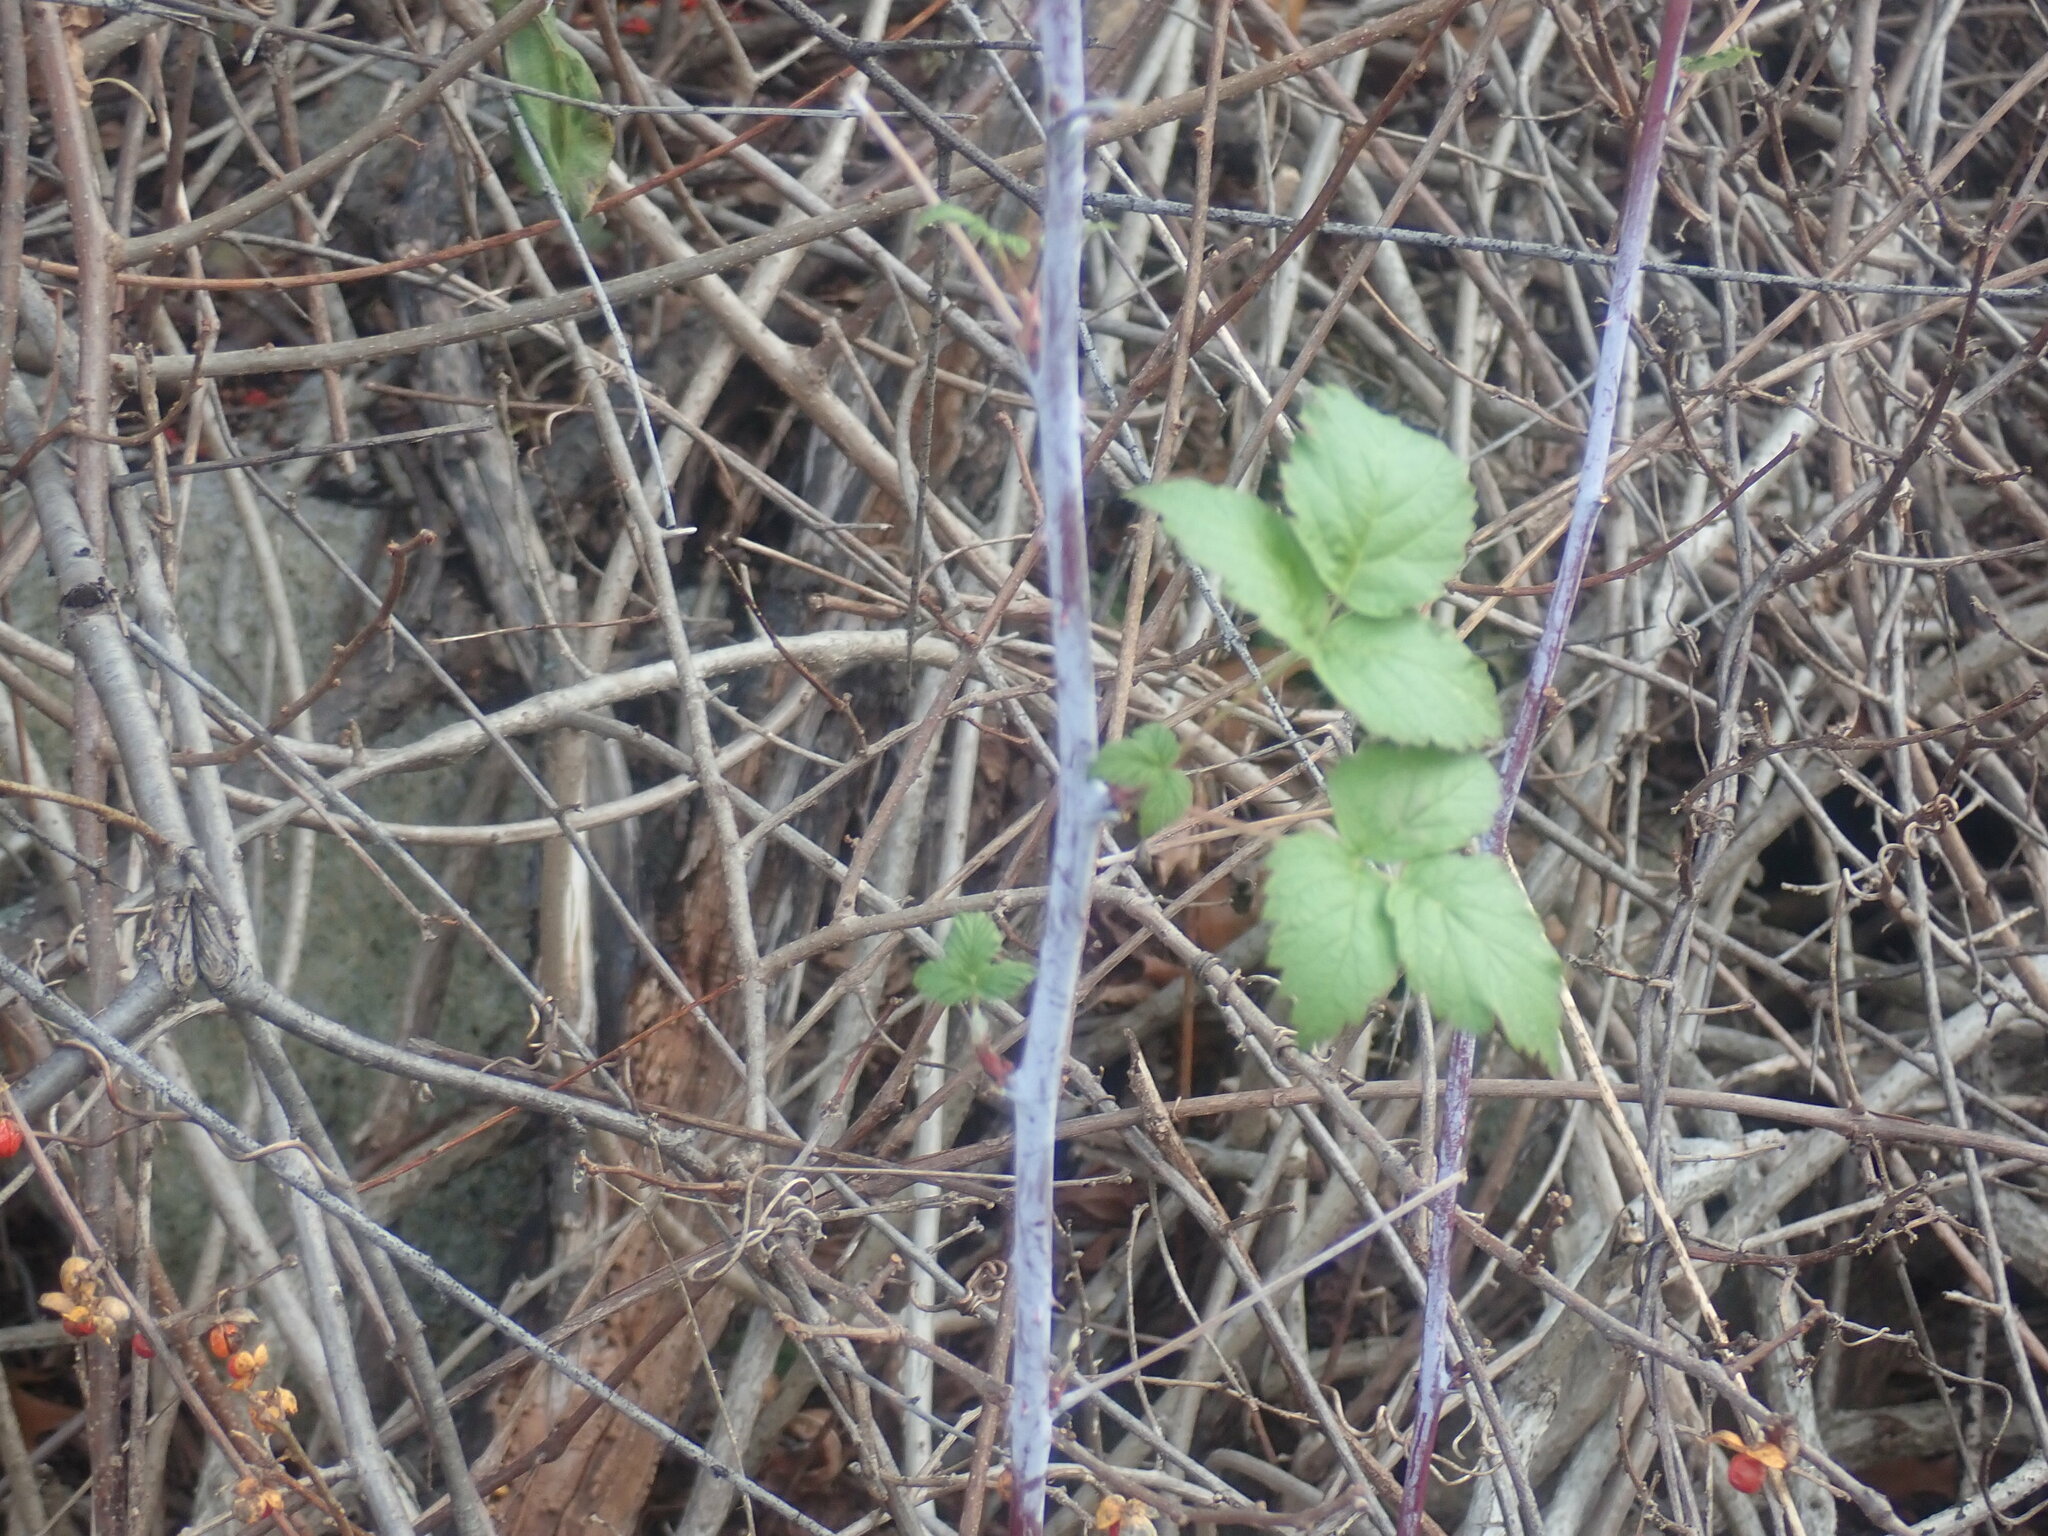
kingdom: Plantae
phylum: Tracheophyta
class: Magnoliopsida
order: Rosales
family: Rosaceae
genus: Rubus
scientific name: Rubus occidentalis
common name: Black raspberry
